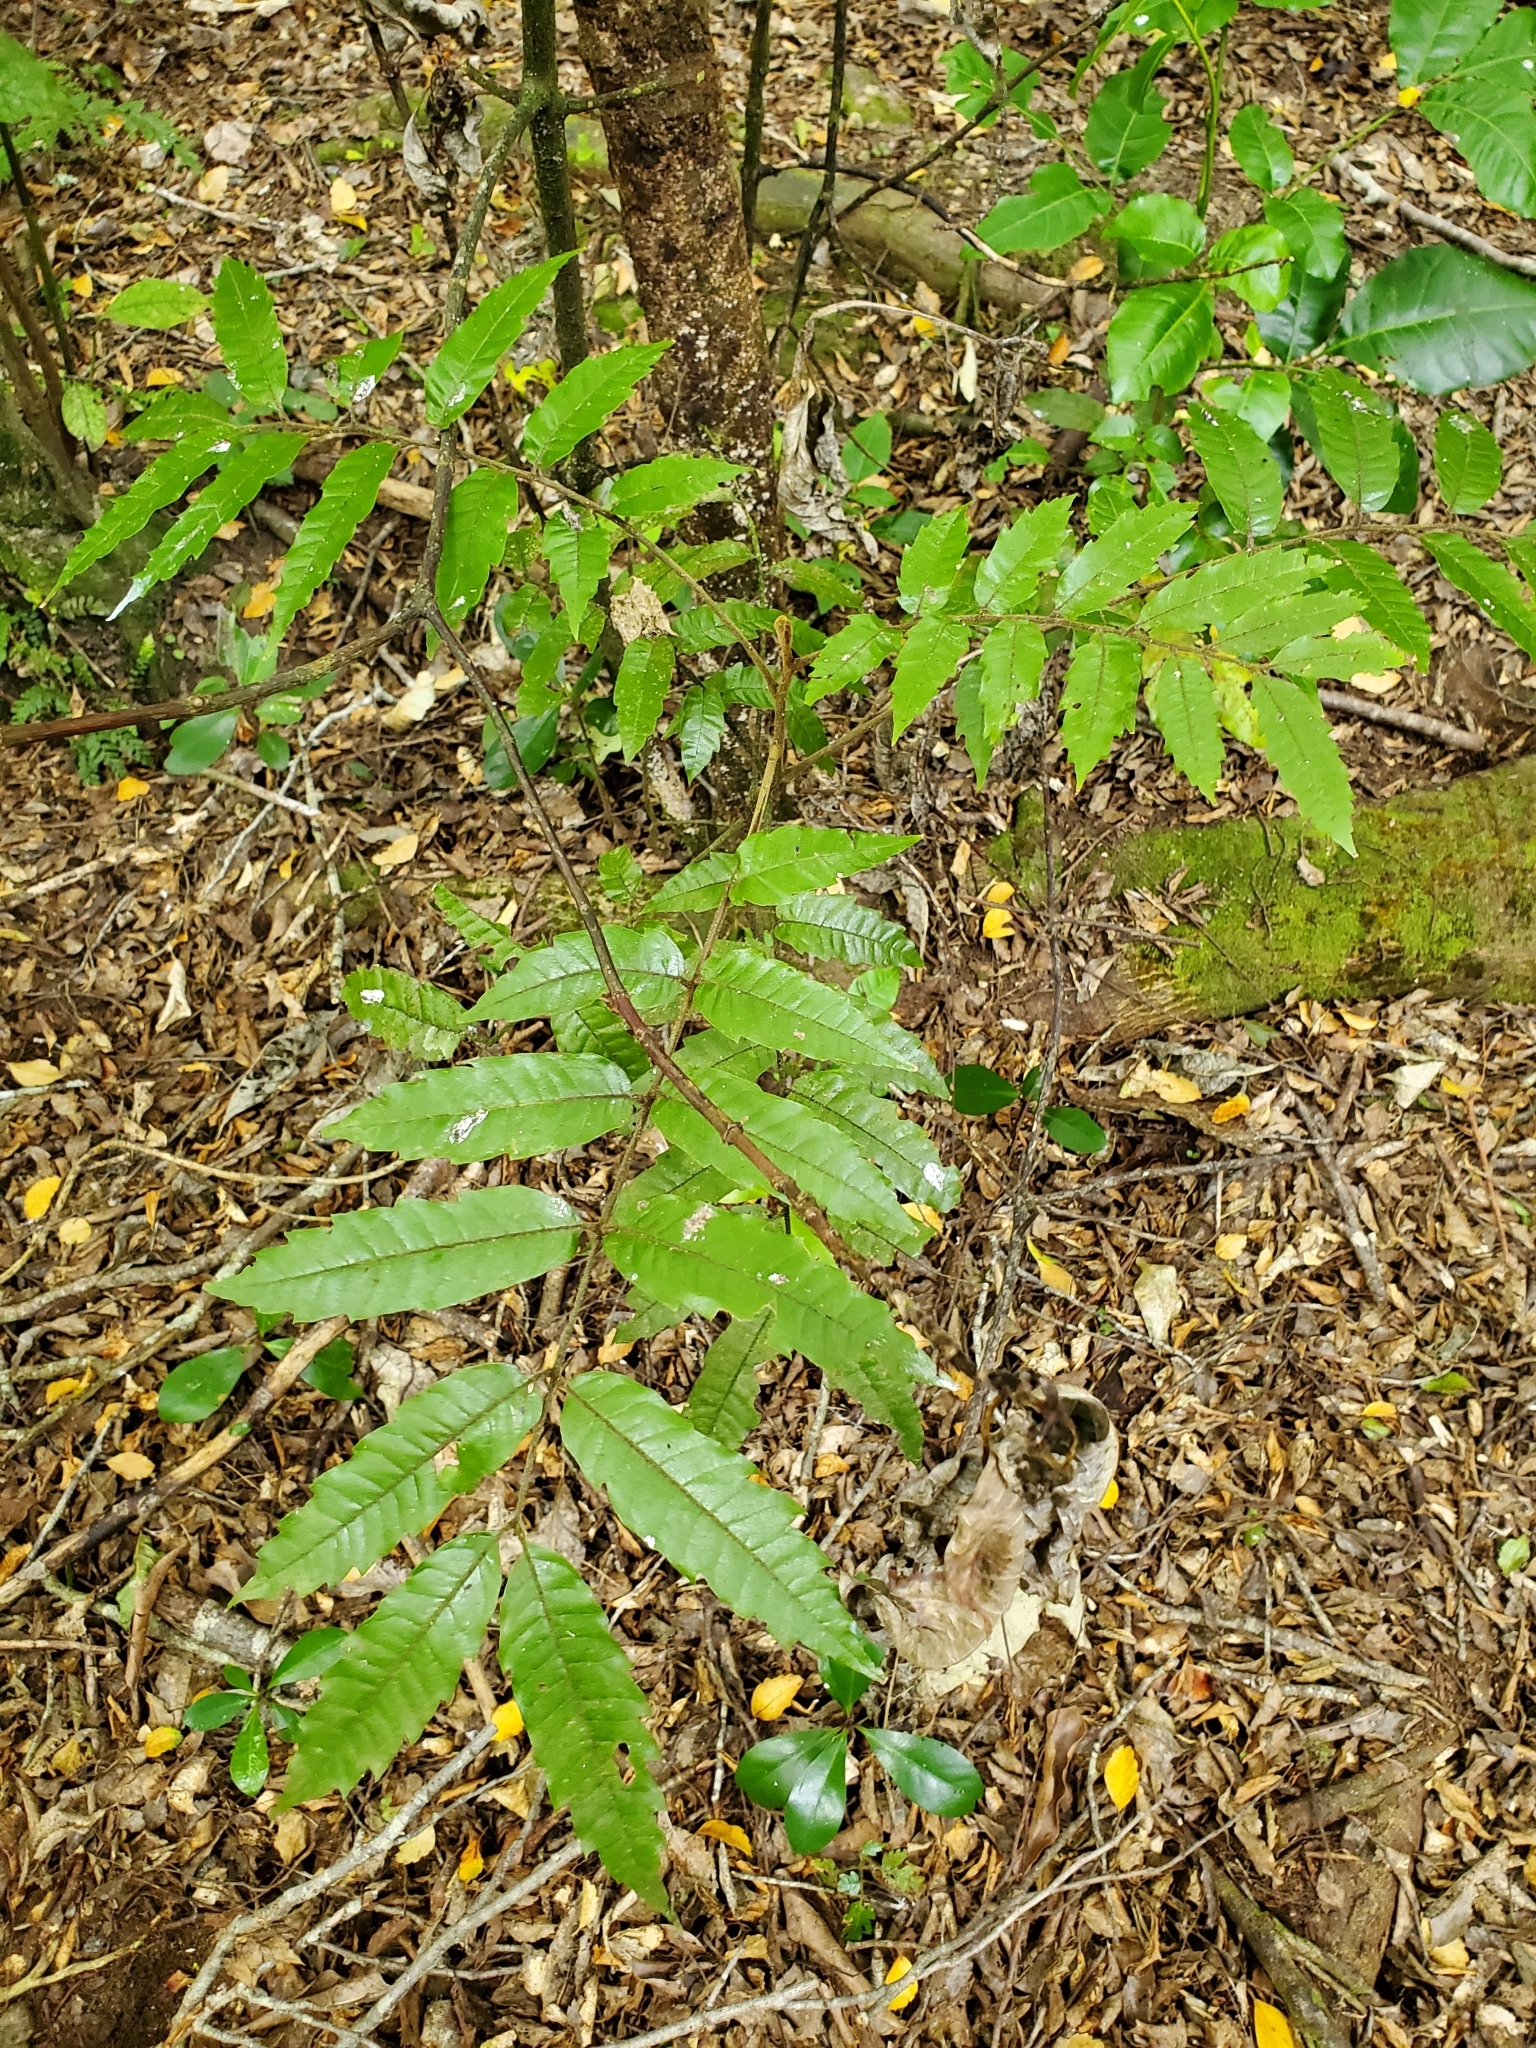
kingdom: Plantae
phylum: Tracheophyta
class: Magnoliopsida
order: Sapindales
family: Sapindaceae
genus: Alectryon
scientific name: Alectryon excelsus
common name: Three kings titoki
